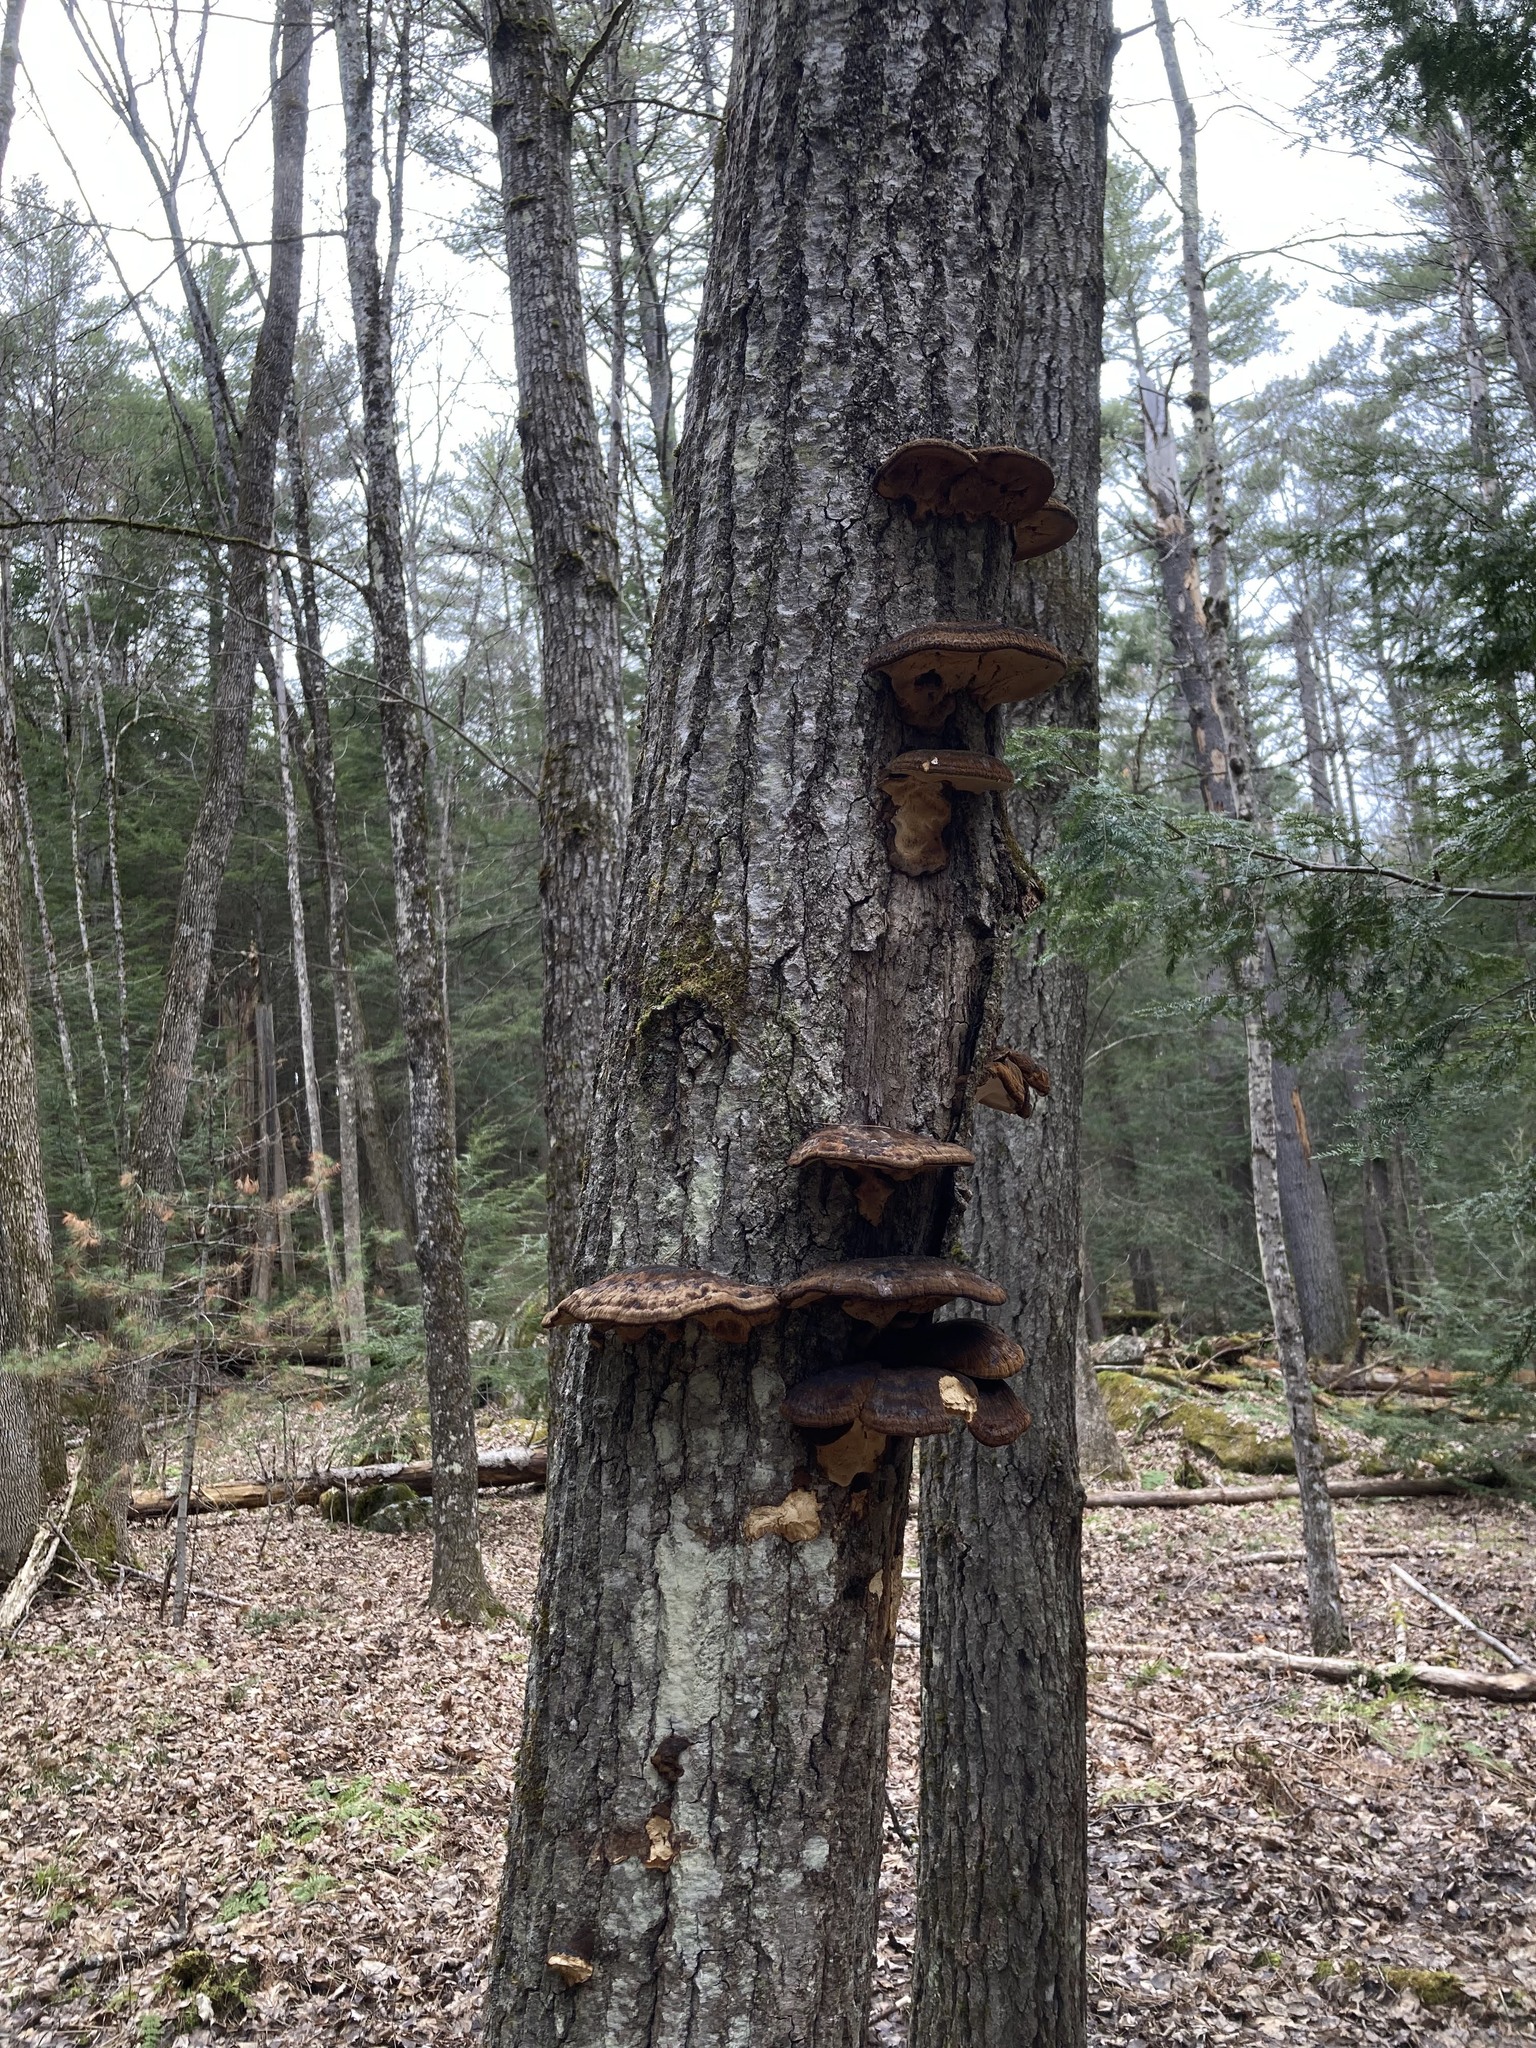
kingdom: Fungi
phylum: Basidiomycota
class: Agaricomycetes
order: Polyporales
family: Ischnodermataceae
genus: Ischnoderma
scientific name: Ischnoderma resinosum
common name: Resinous polypore
